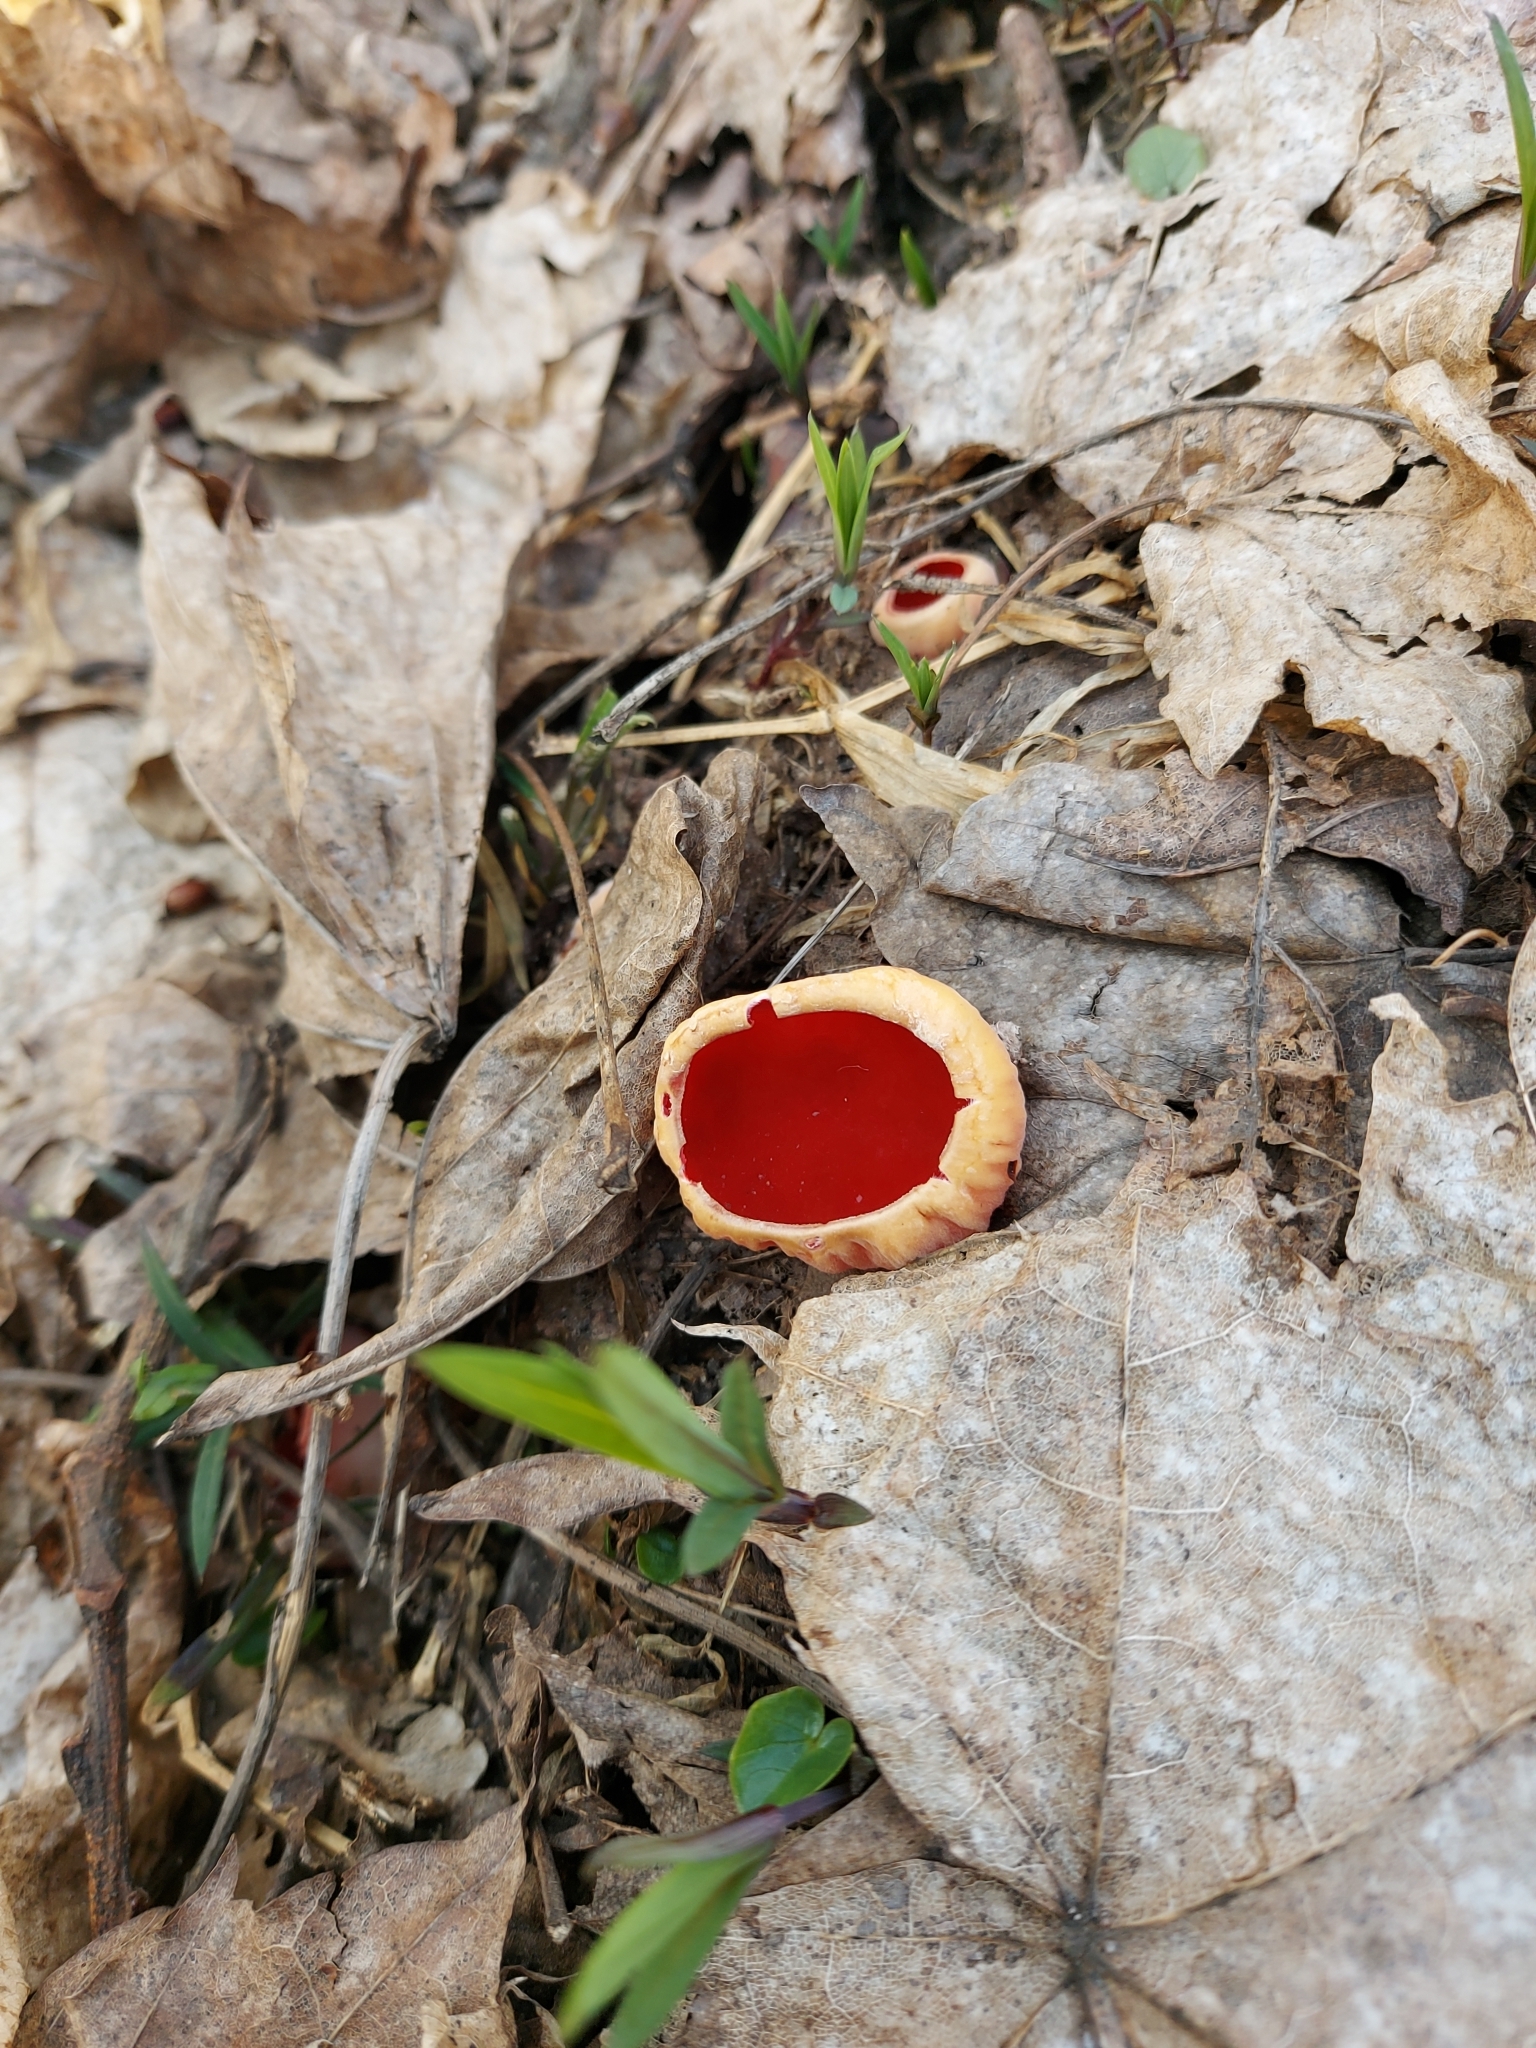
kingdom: Fungi
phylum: Ascomycota
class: Pezizomycetes
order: Pezizales
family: Sarcoscyphaceae
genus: Sarcoscypha
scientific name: Sarcoscypha
